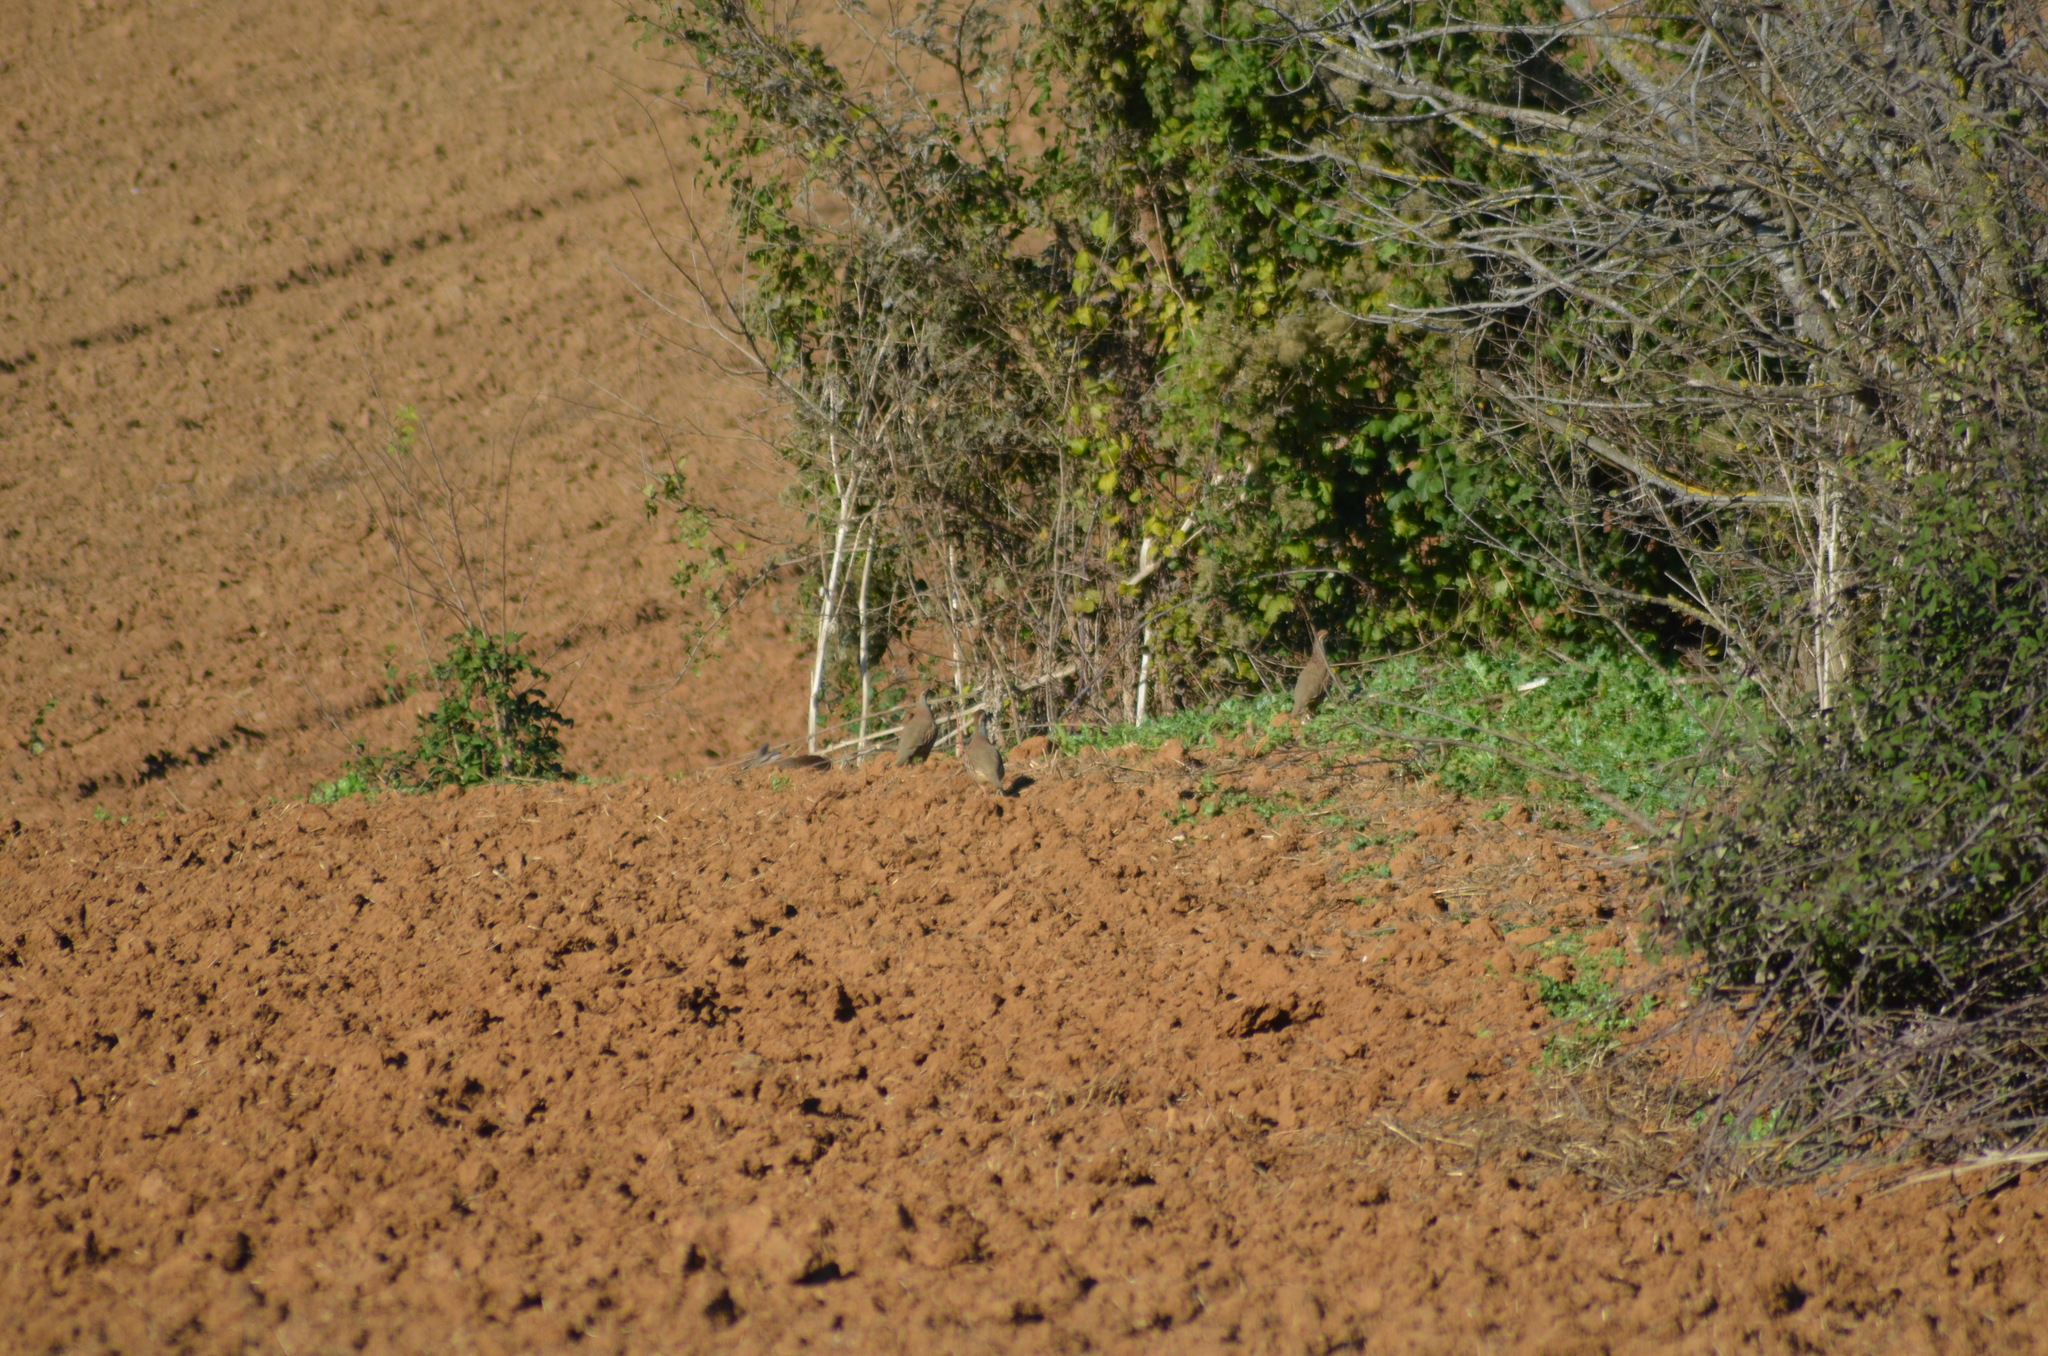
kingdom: Animalia
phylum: Chordata
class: Aves
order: Galliformes
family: Phasianidae
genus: Alectoris
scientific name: Alectoris rufa
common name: Red-legged partridge
